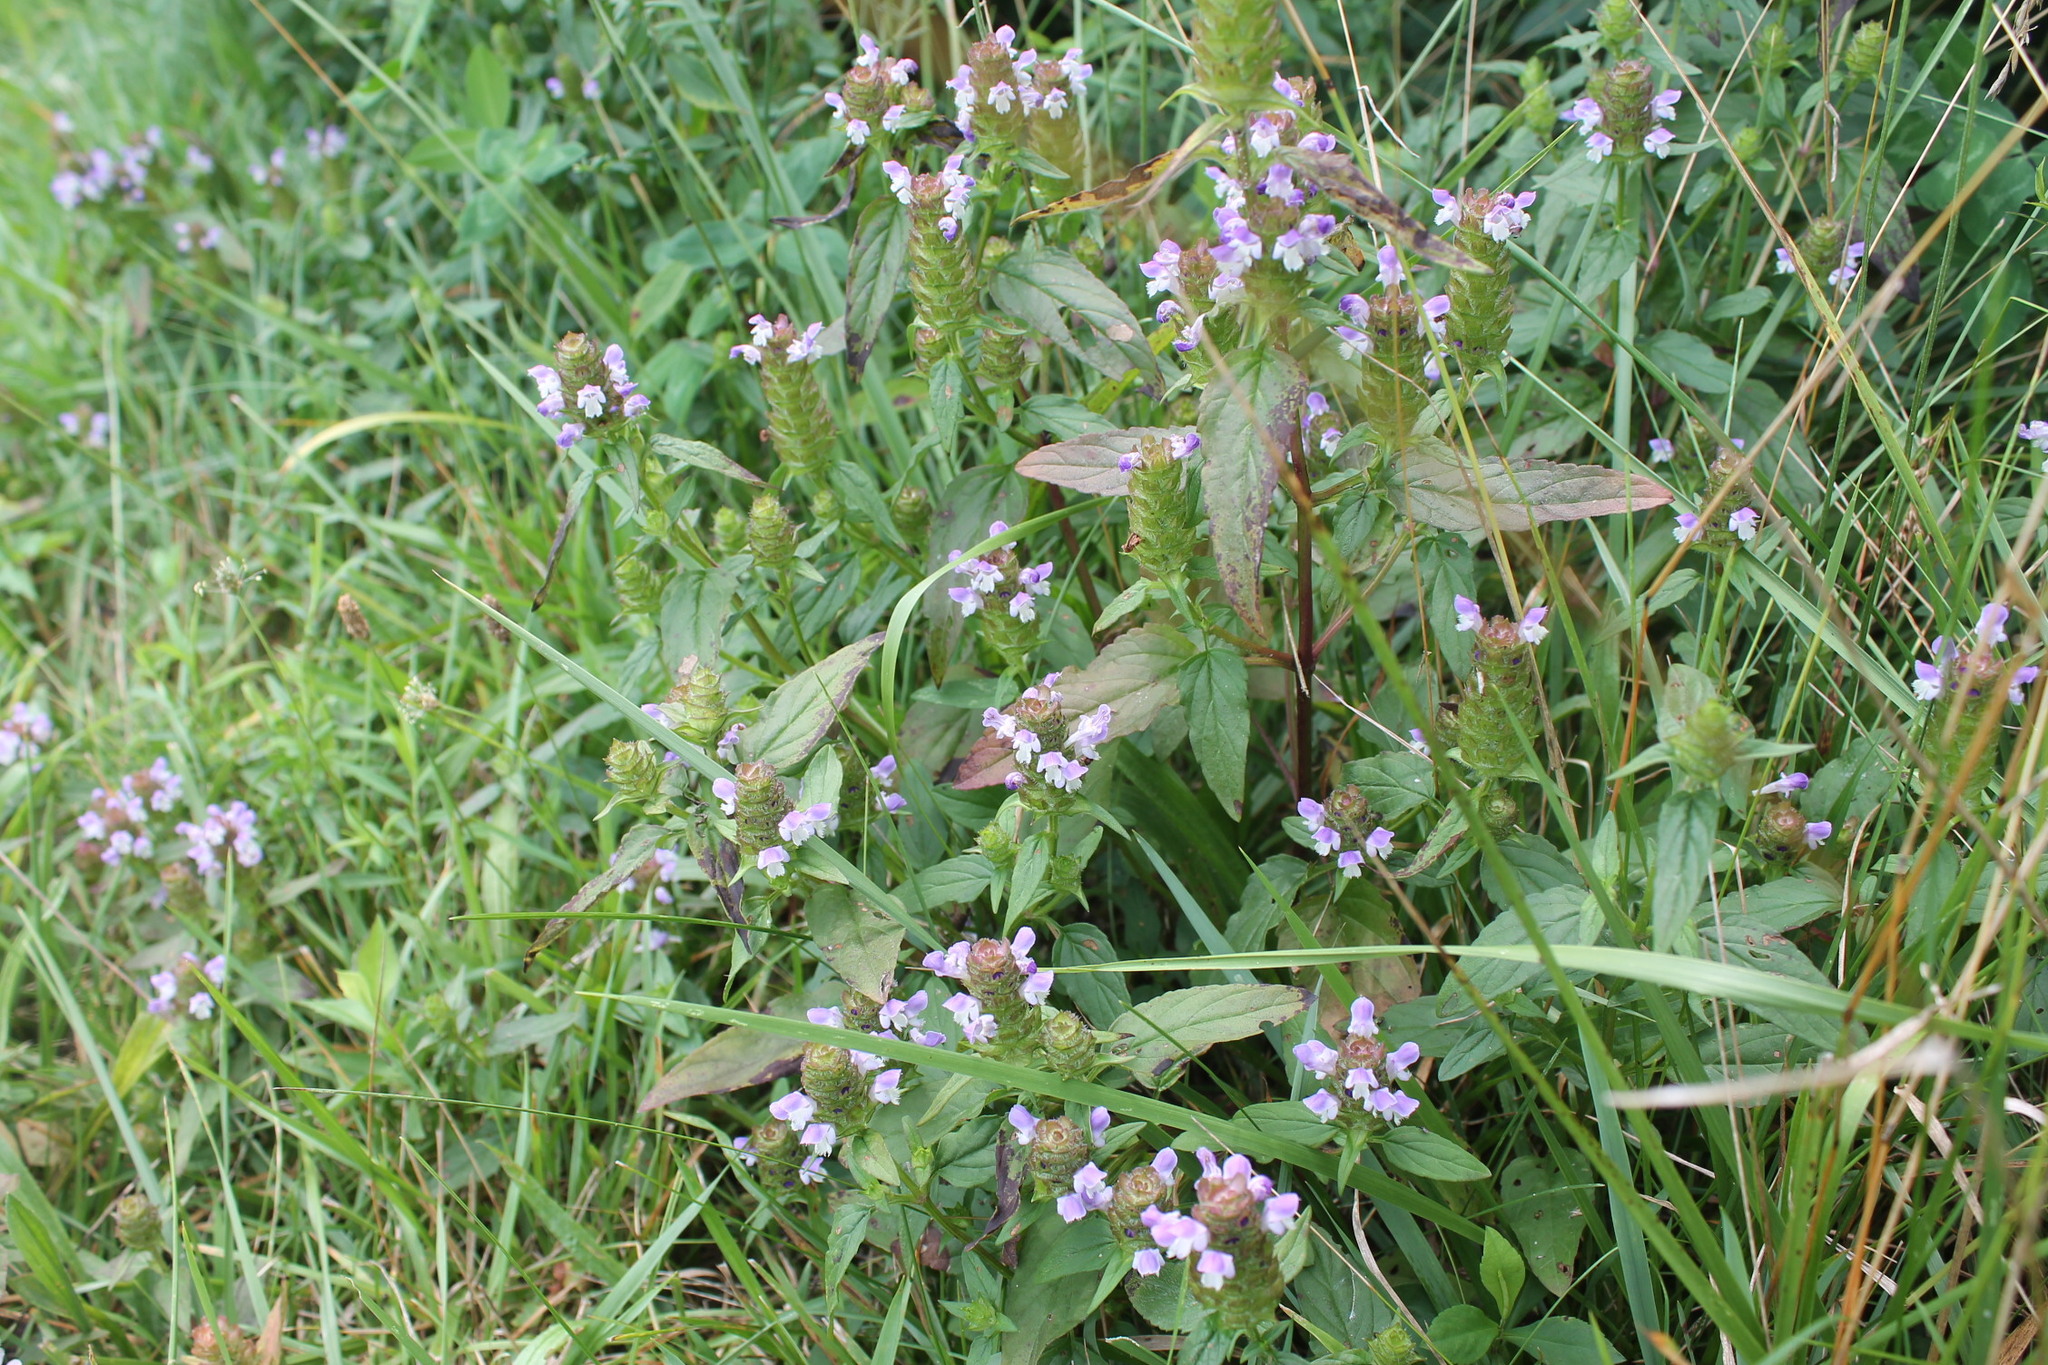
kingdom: Plantae
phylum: Tracheophyta
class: Magnoliopsida
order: Lamiales
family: Lamiaceae
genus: Prunella
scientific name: Prunella vulgaris
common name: Heal-all
